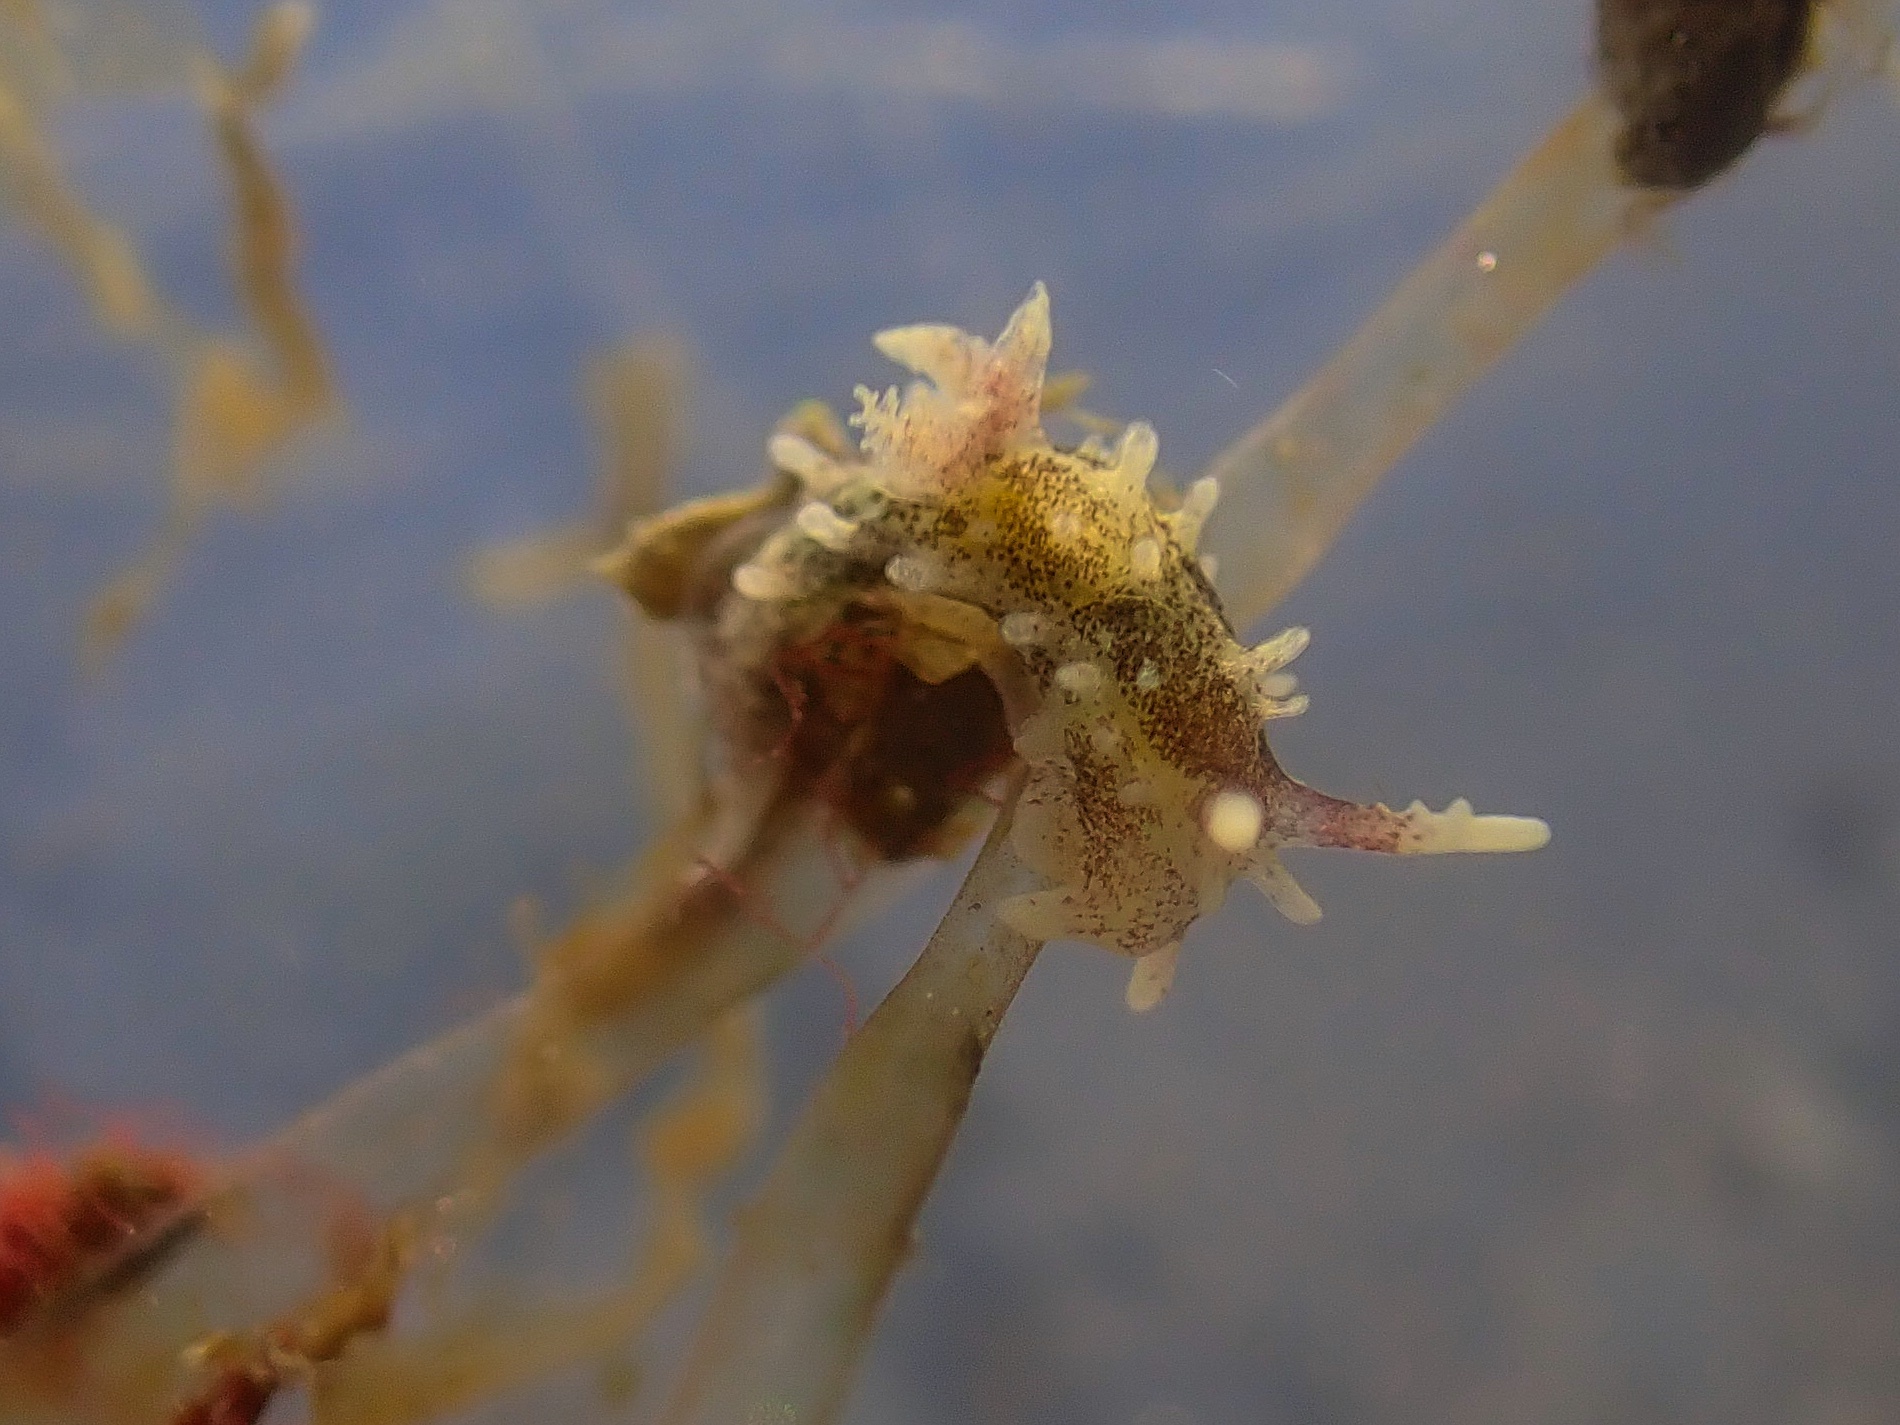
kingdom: Animalia
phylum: Mollusca
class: Gastropoda
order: Nudibranchia
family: Goniodorididae
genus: Okenia
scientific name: Okenia
